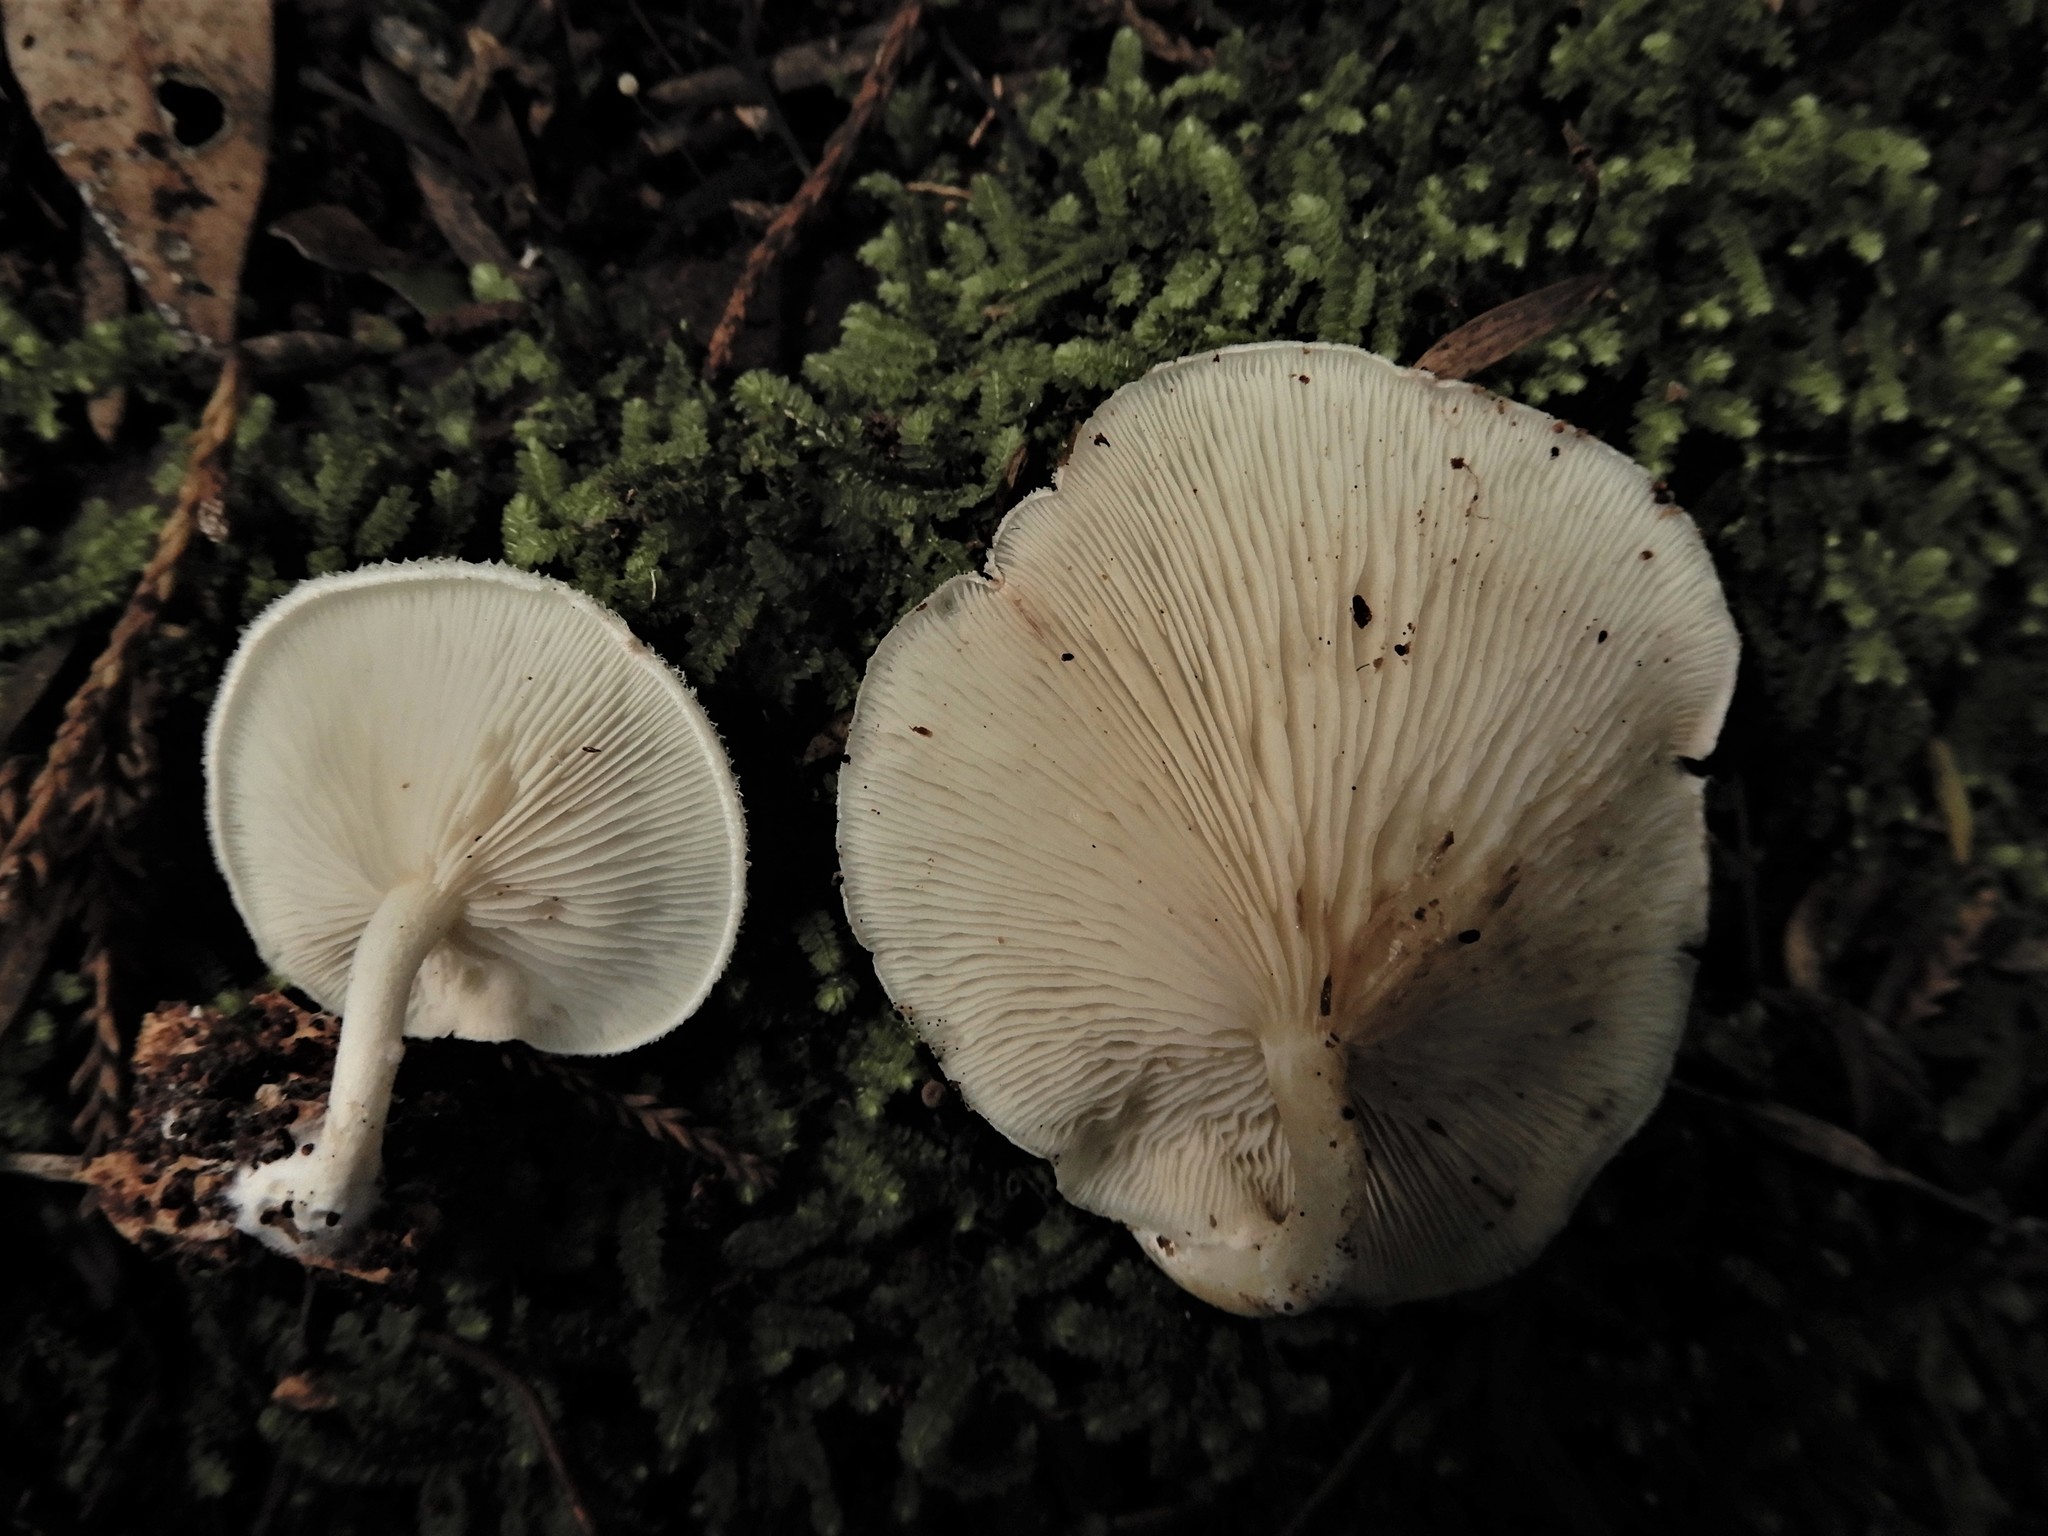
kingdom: Fungi
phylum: Basidiomycota
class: Agaricomycetes
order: Agaricales
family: Entolomataceae
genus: Clitopilus
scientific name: Clitopilus
